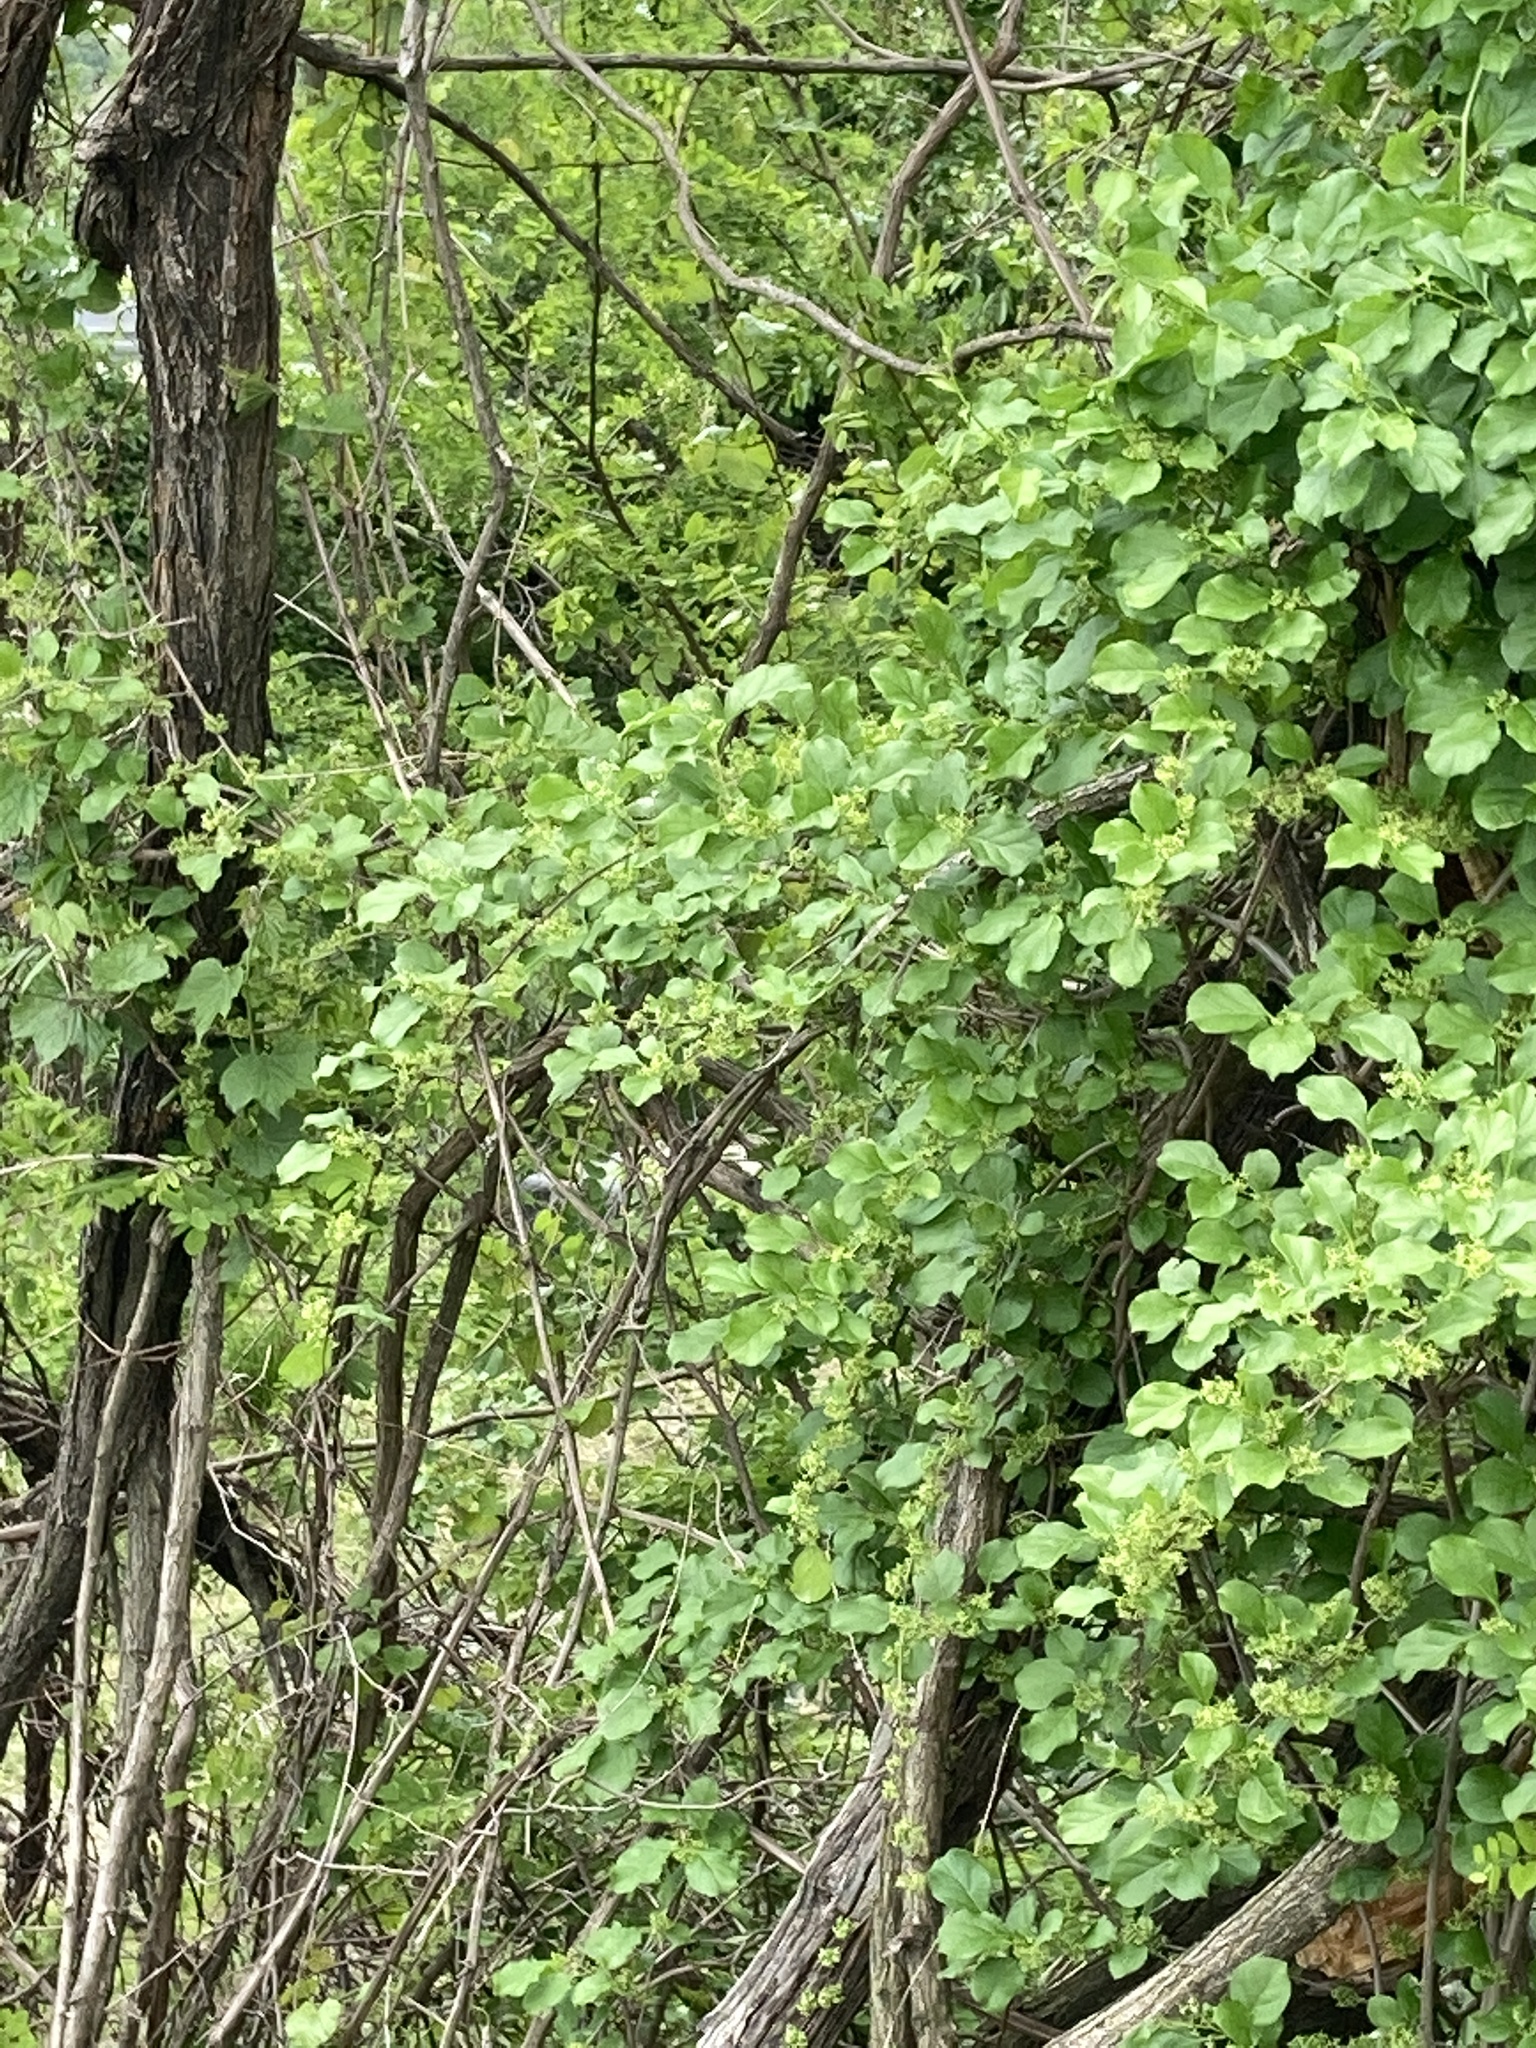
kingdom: Plantae
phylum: Tracheophyta
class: Magnoliopsida
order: Celastrales
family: Celastraceae
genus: Celastrus
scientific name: Celastrus orbiculatus
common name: Oriental bittersweet
